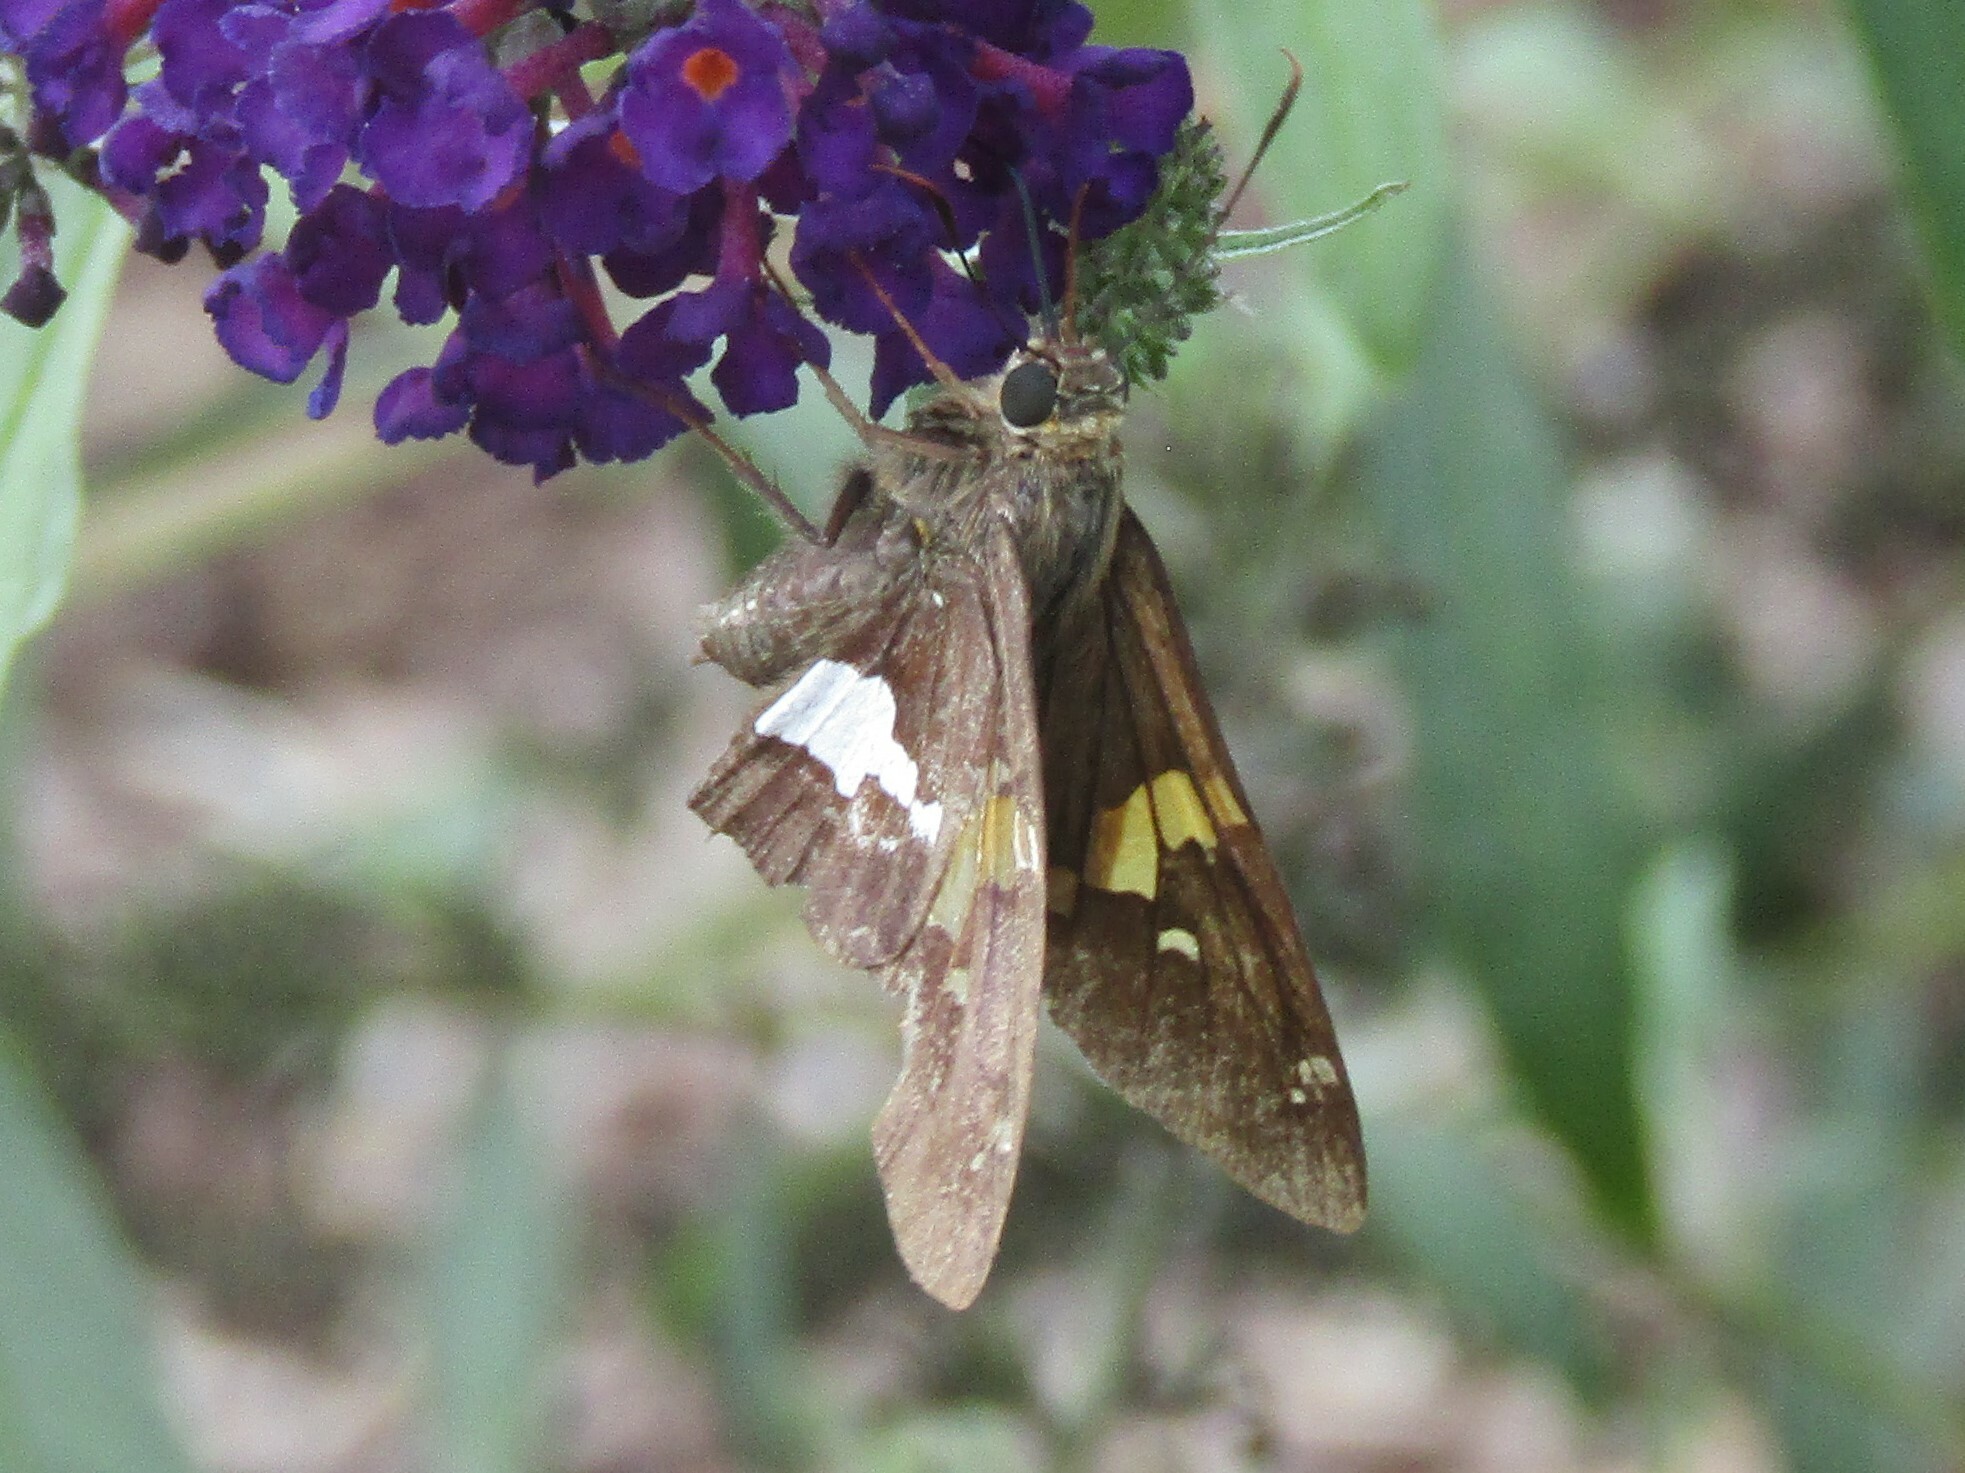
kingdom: Animalia
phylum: Arthropoda
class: Insecta
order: Lepidoptera
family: Hesperiidae
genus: Epargyreus
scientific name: Epargyreus clarus
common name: Silver-spotted skipper
